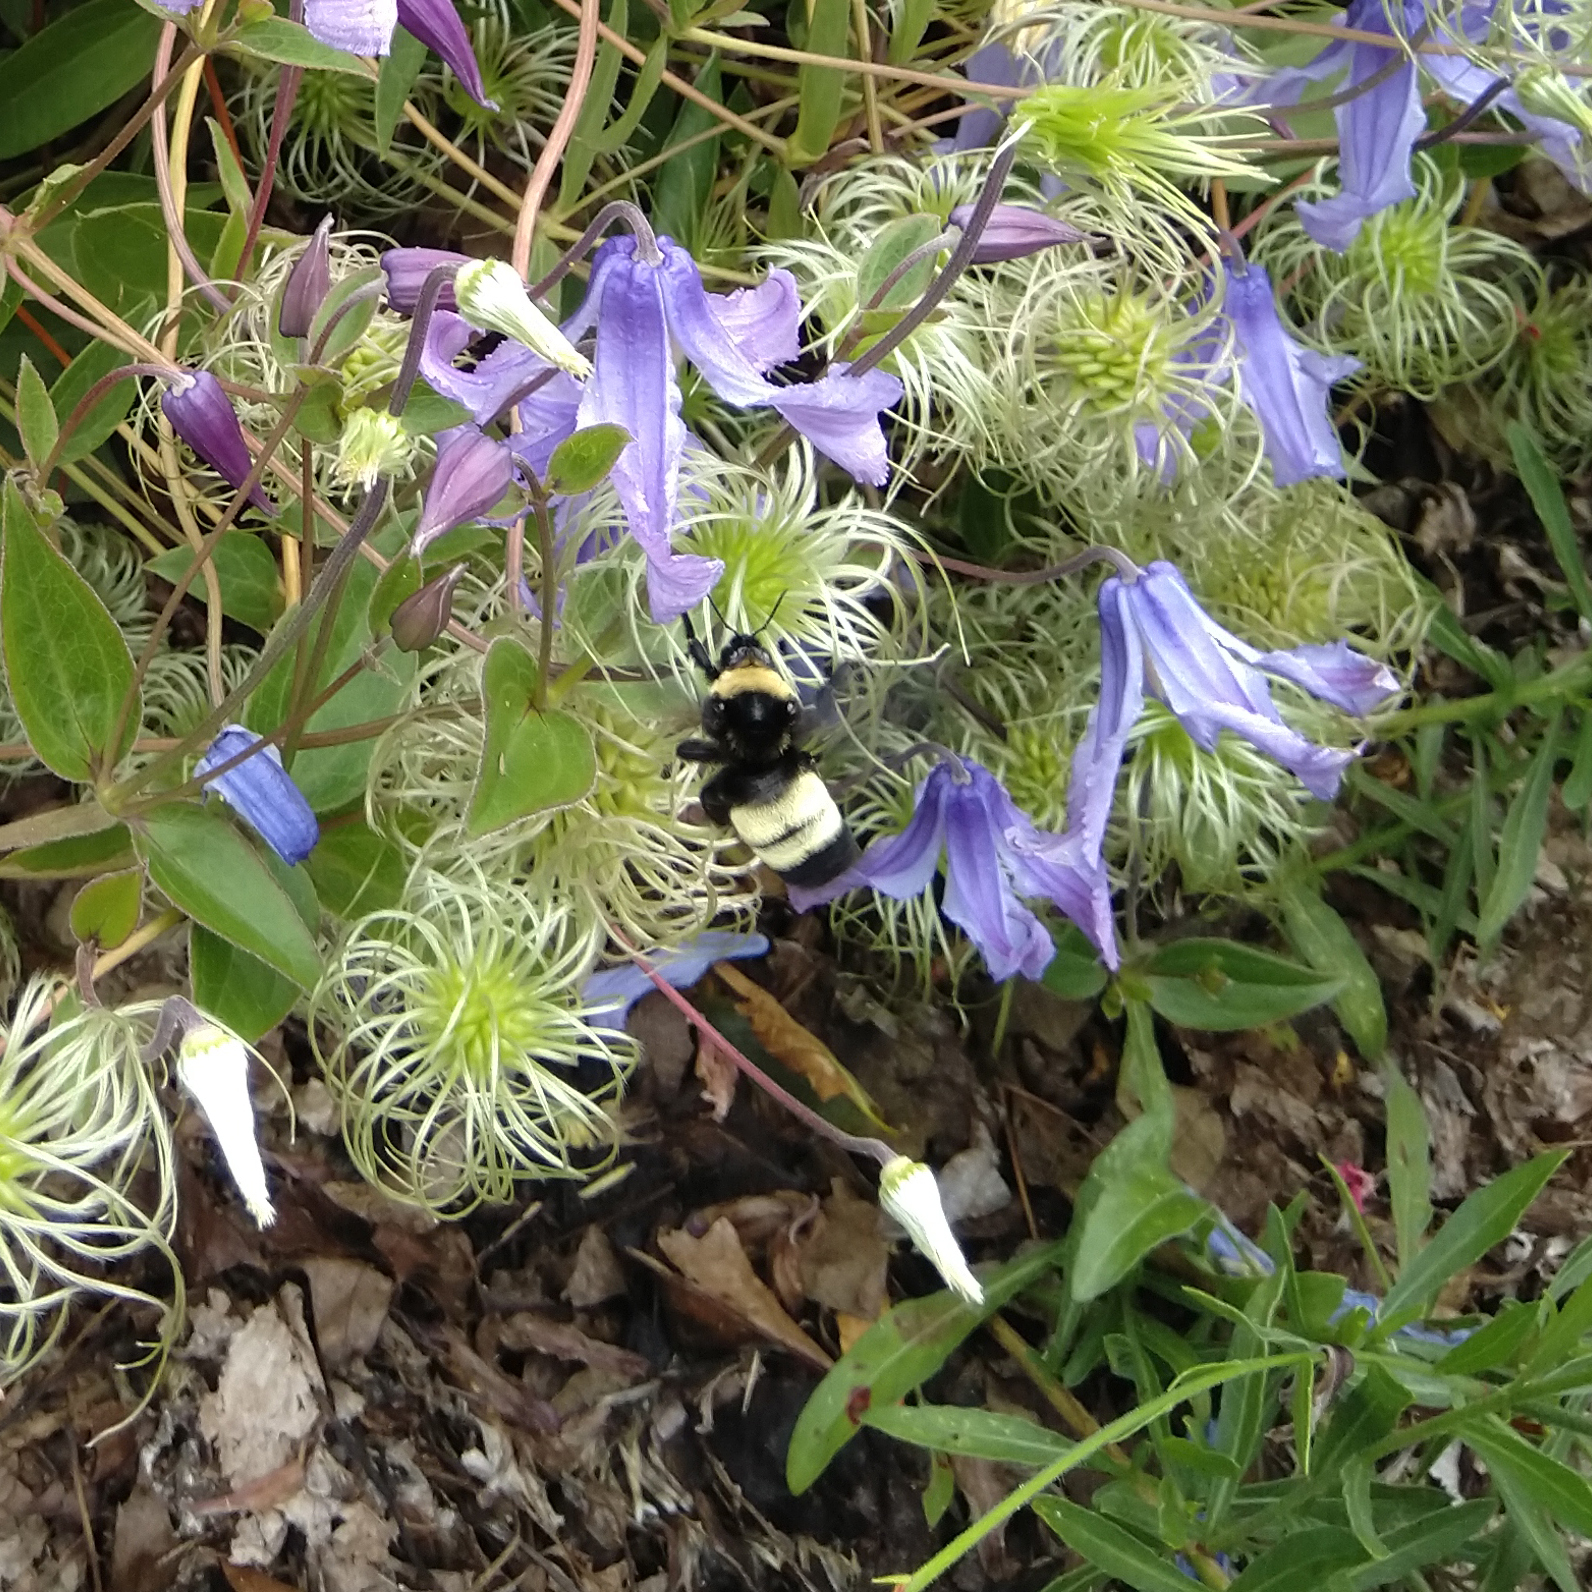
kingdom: Animalia
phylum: Arthropoda
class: Insecta
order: Hymenoptera
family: Apidae
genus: Bombus
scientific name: Bombus auricomus
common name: Black and gold bumble bee
